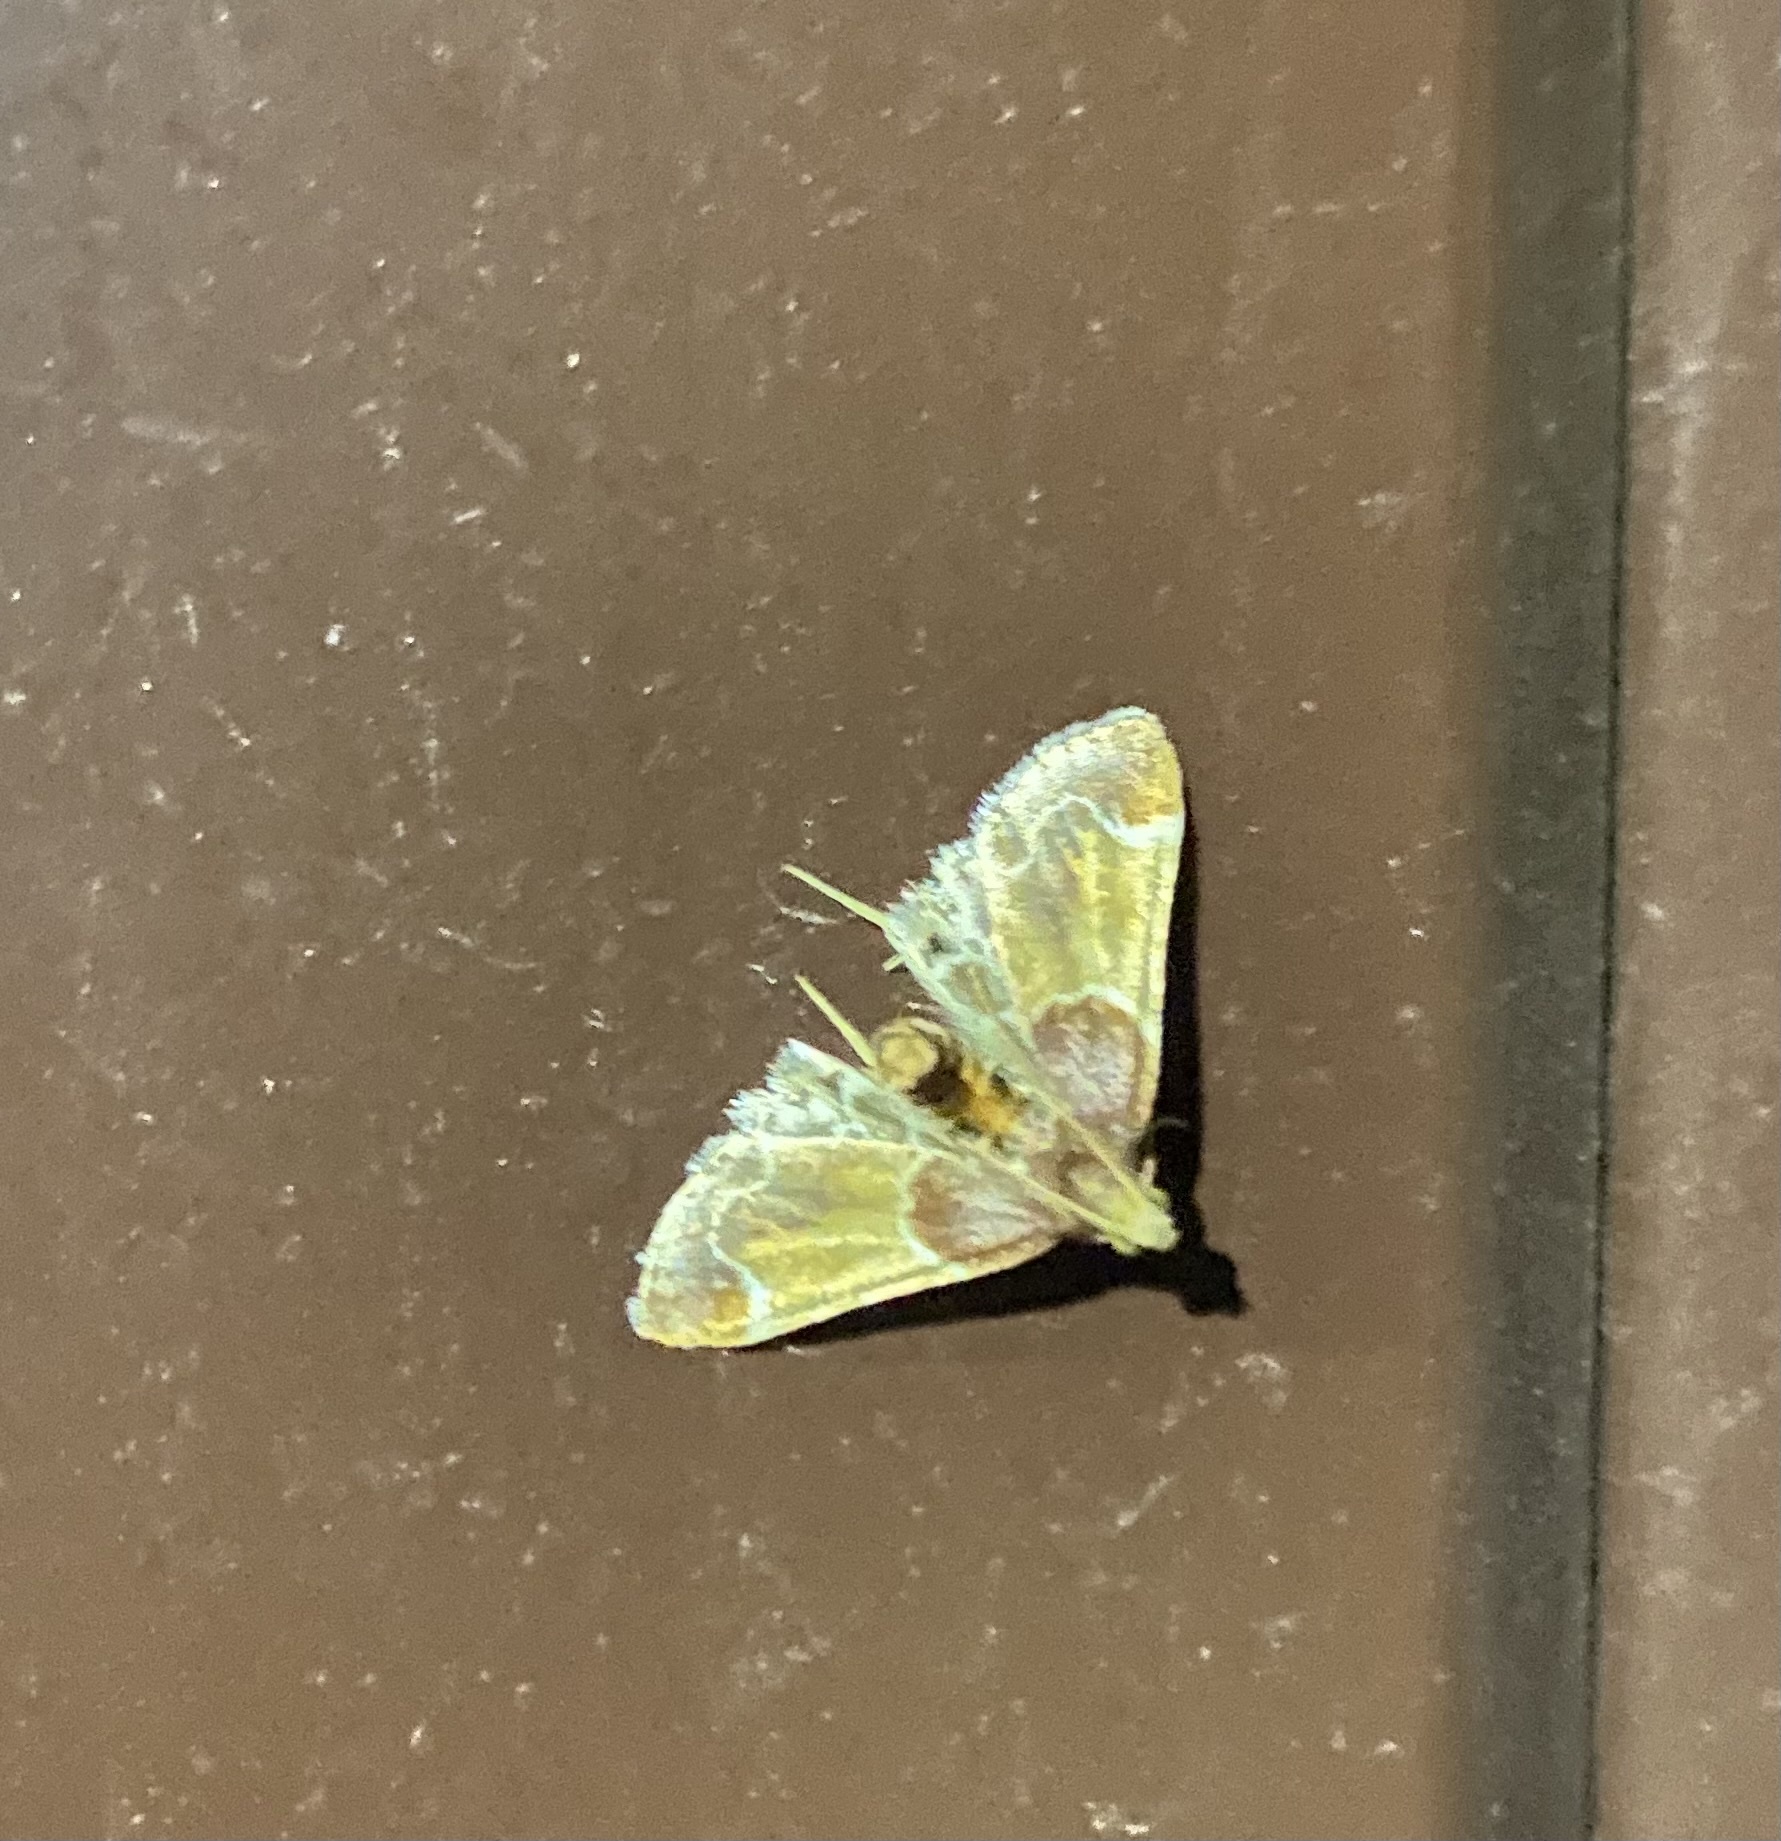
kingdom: Animalia
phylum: Arthropoda
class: Insecta
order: Lepidoptera
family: Pyralidae
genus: Pyralis
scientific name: Pyralis farinalis
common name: Meal moth
